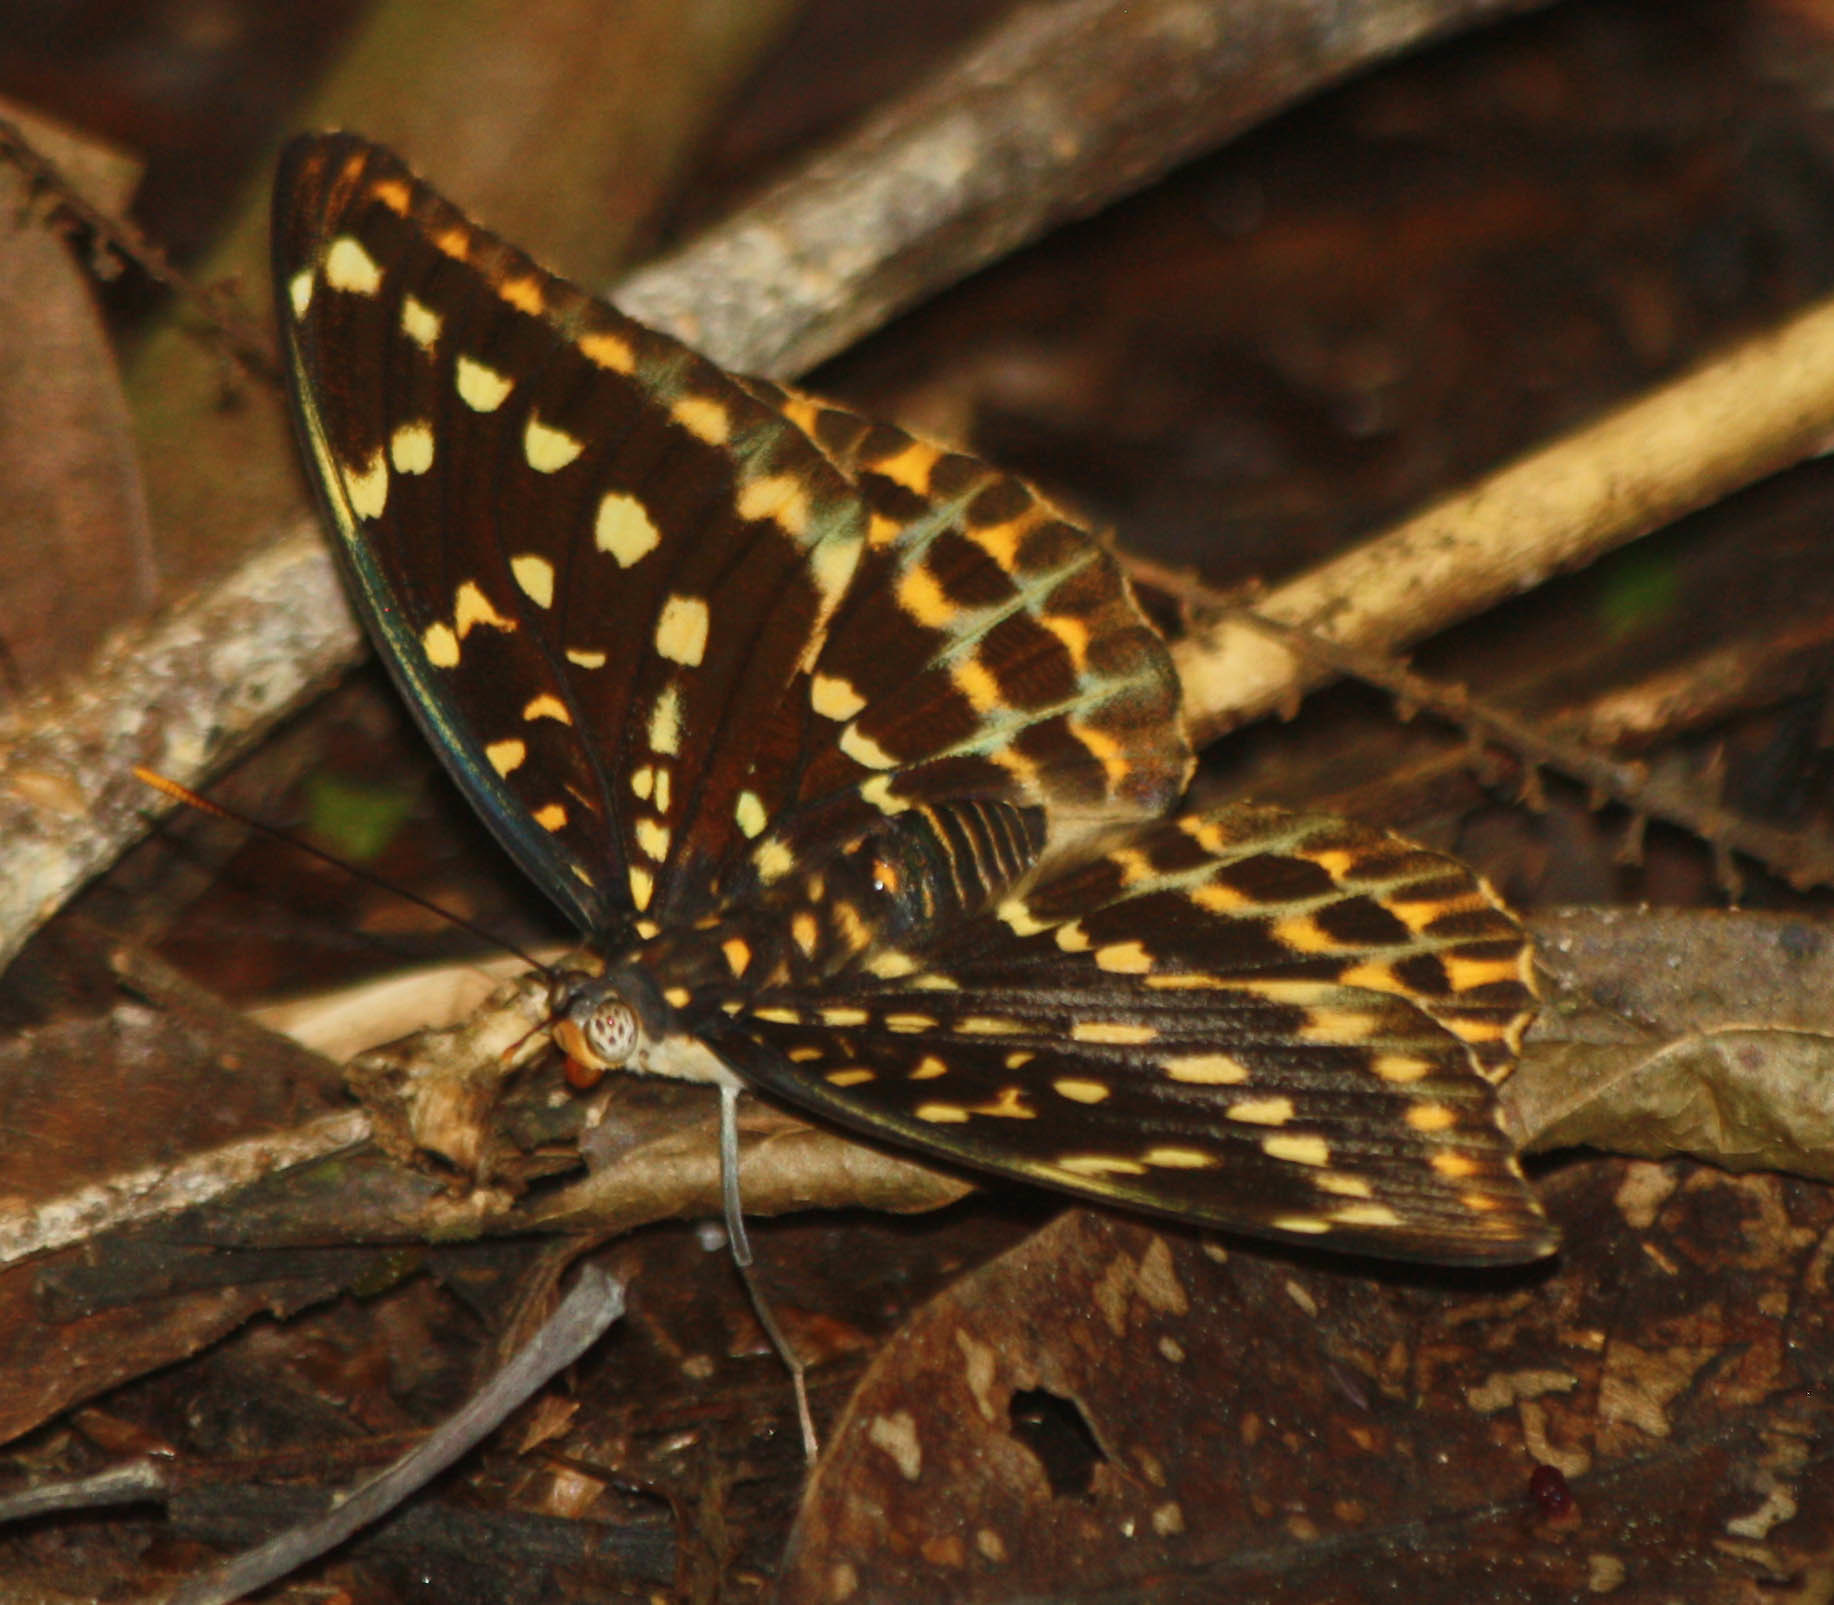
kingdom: Animalia
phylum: Arthropoda
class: Insecta
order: Lepidoptera
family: Nymphalidae
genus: Lexias
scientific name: Lexias pardalis
